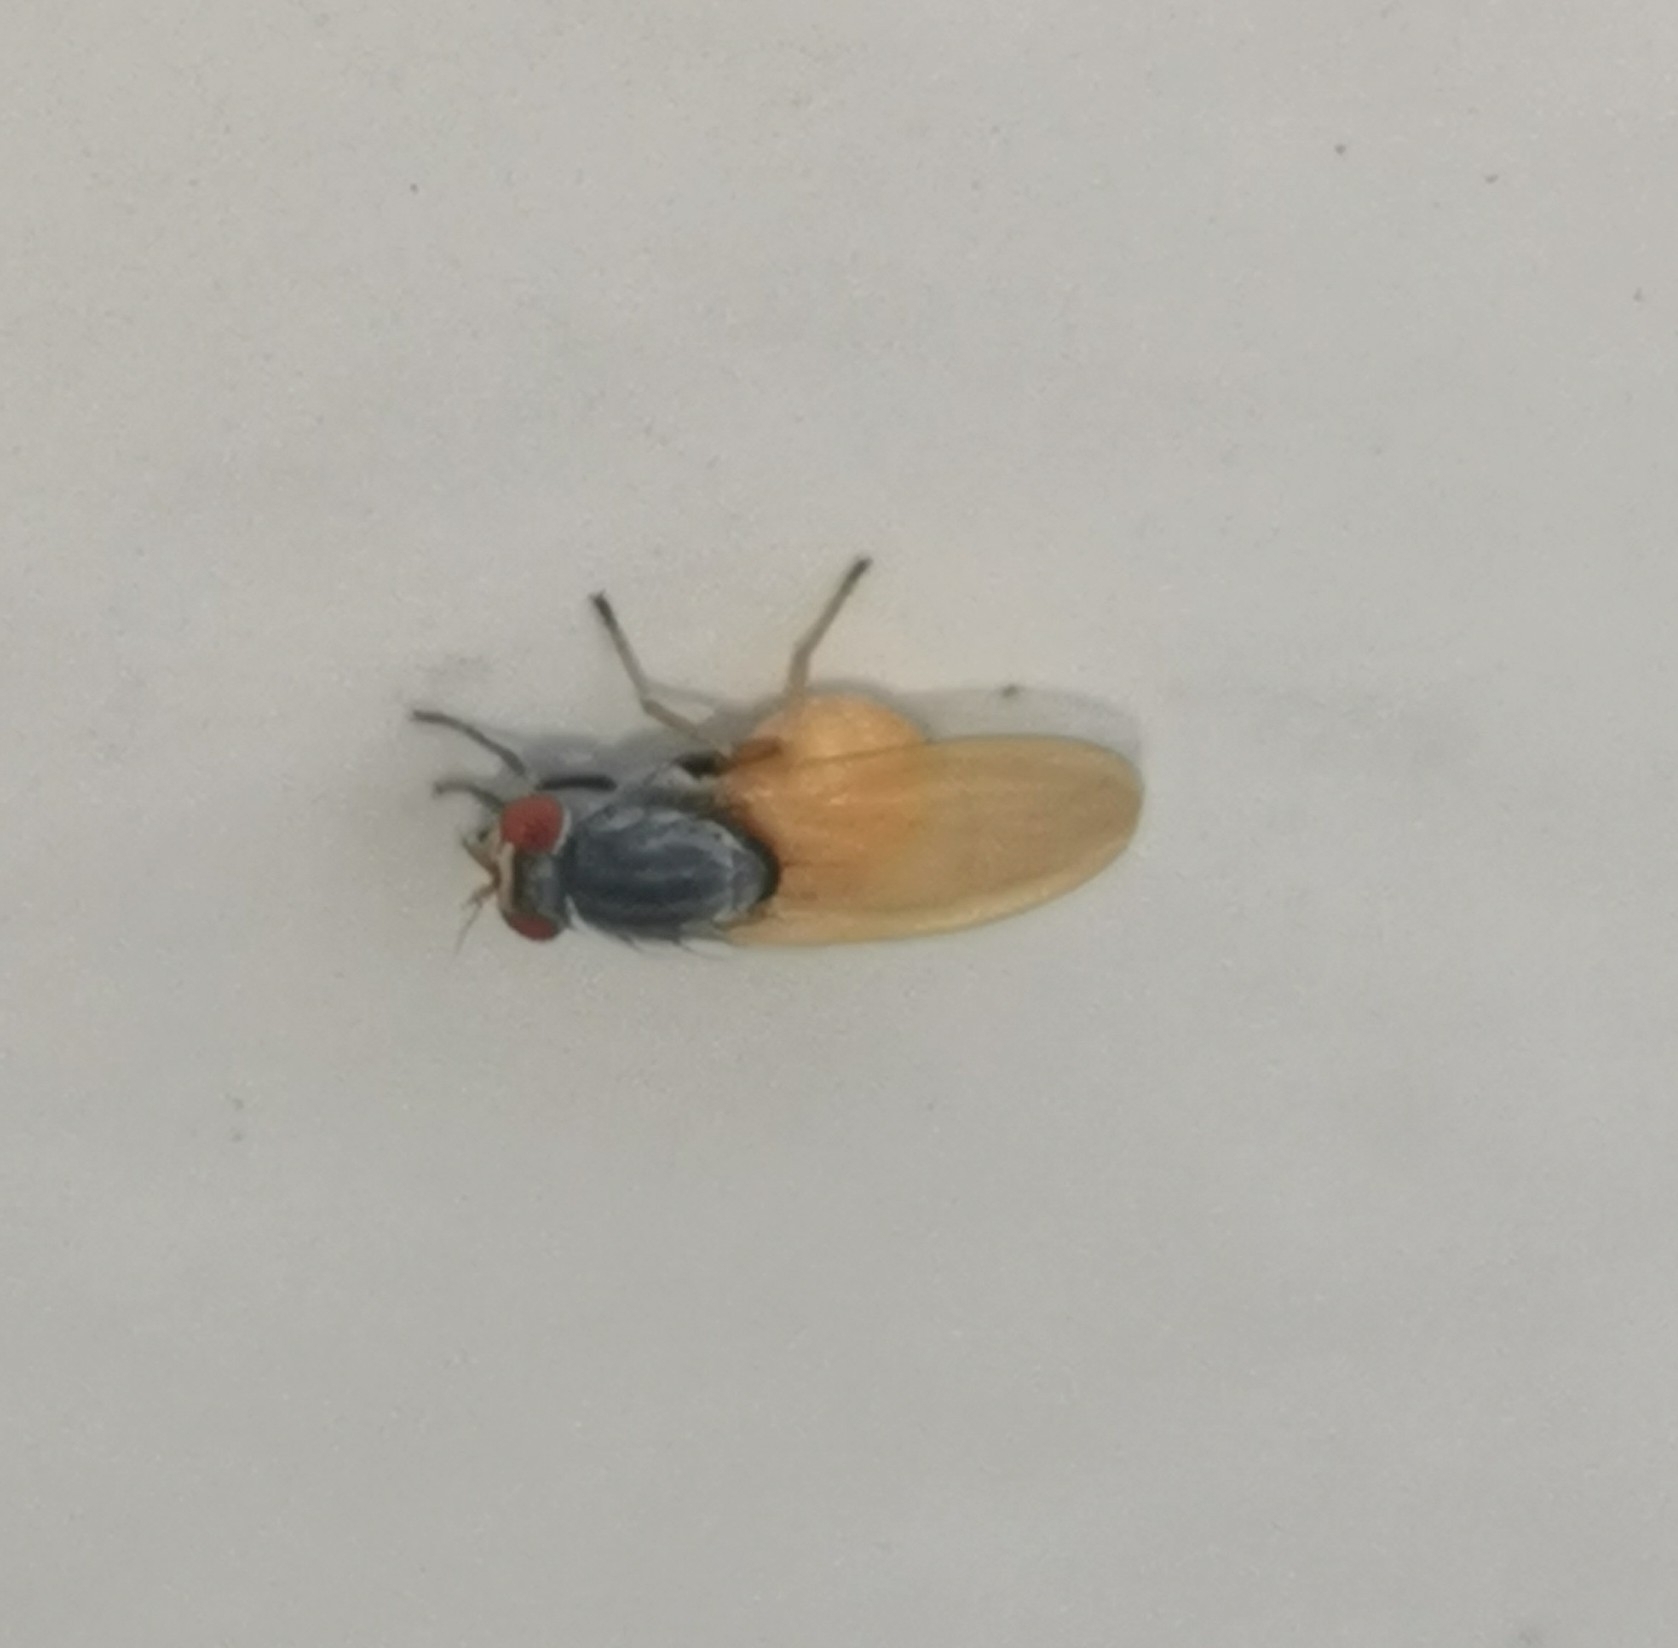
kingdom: Animalia
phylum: Arthropoda
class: Insecta
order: Diptera
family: Lauxaniidae
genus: Minettia
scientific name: Minettia lupulina
